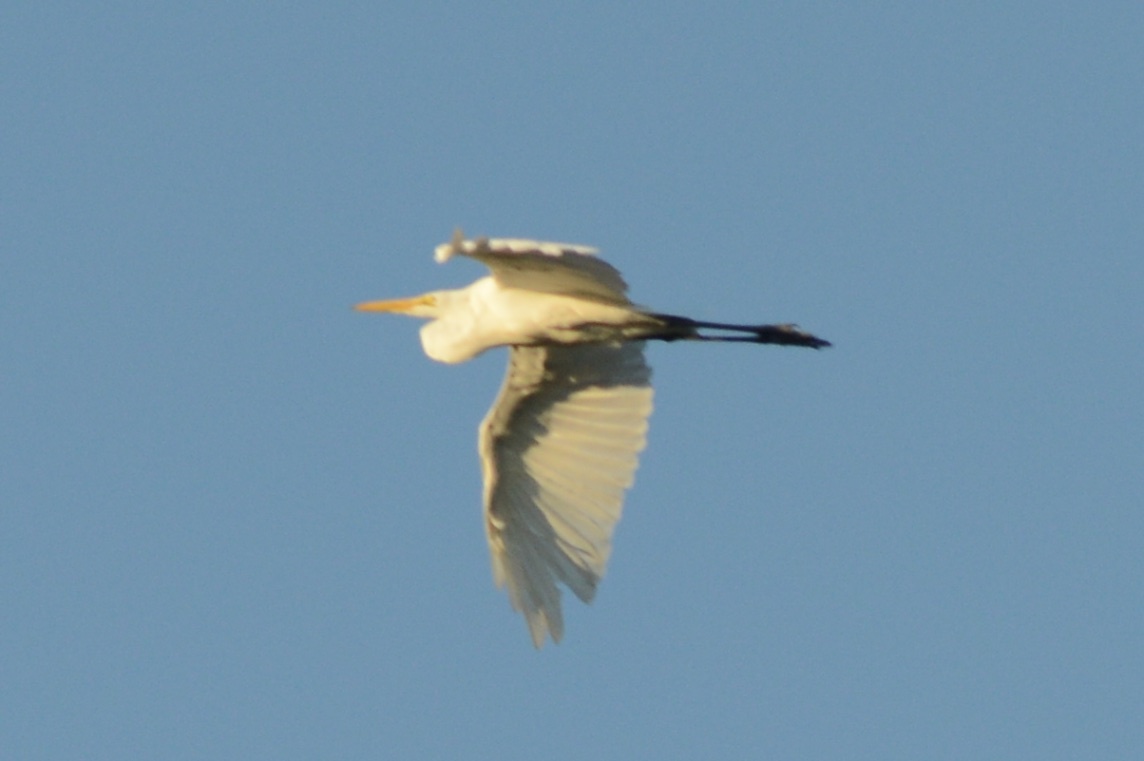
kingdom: Animalia
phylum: Chordata
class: Aves
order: Pelecaniformes
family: Ardeidae
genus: Ardea
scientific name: Ardea alba
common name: Great egret
